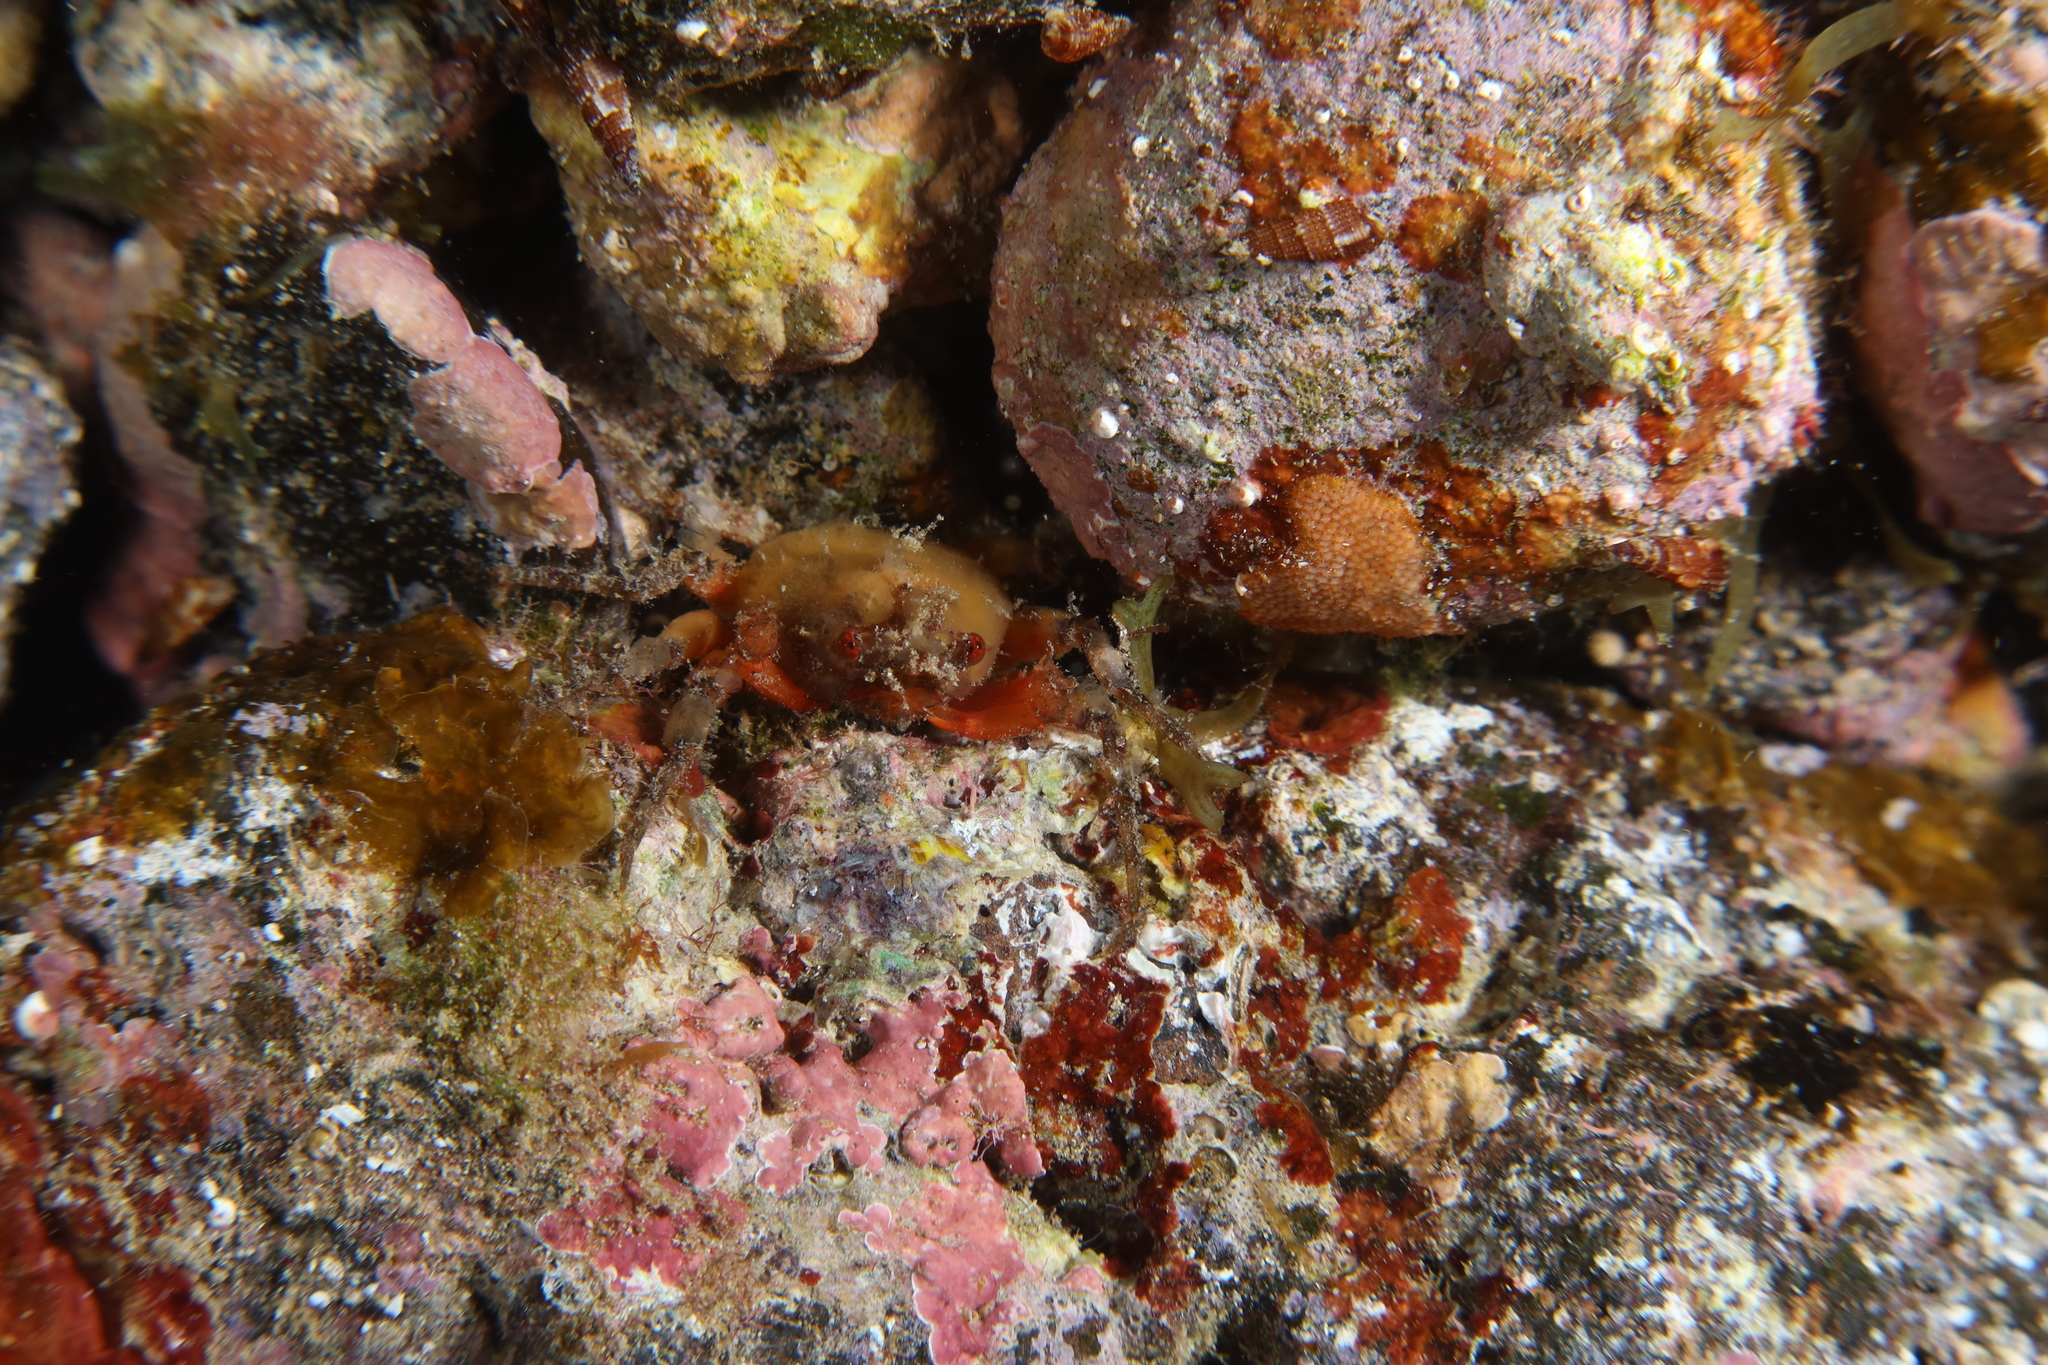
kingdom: Animalia
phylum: Arthropoda
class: Malacostraca
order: Decapoda
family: Epialtidae
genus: Herbstia
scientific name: Herbstia condyliata
